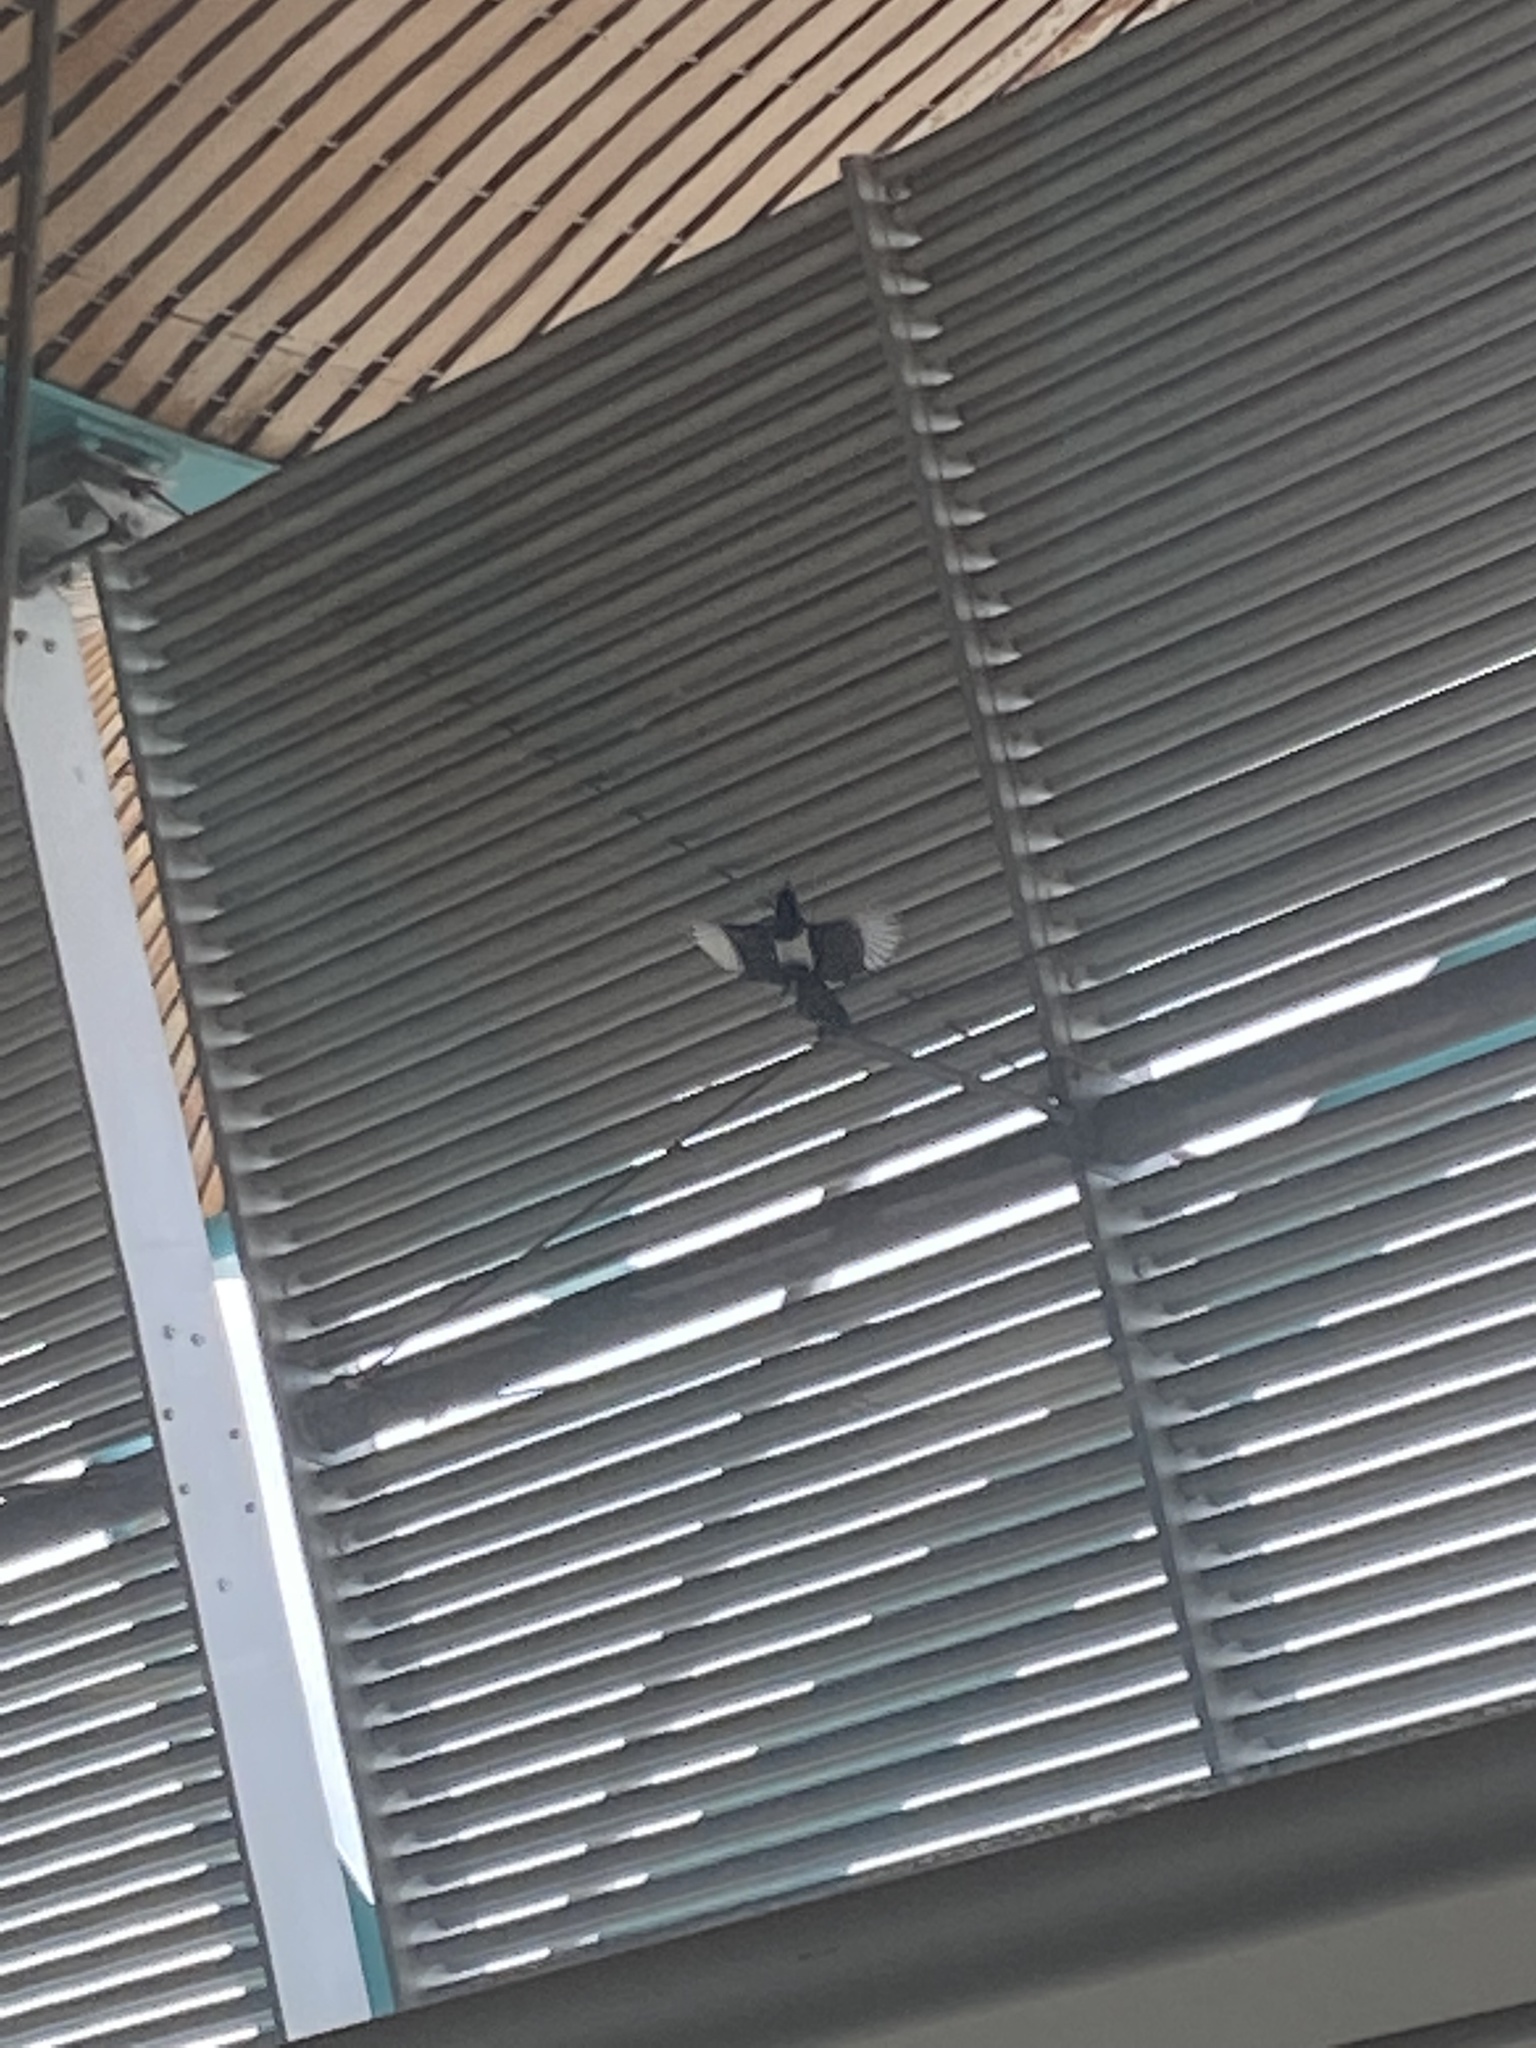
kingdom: Animalia
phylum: Chordata
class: Aves
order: Passeriformes
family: Corvidae
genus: Pica
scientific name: Pica pica
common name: Eurasian magpie
